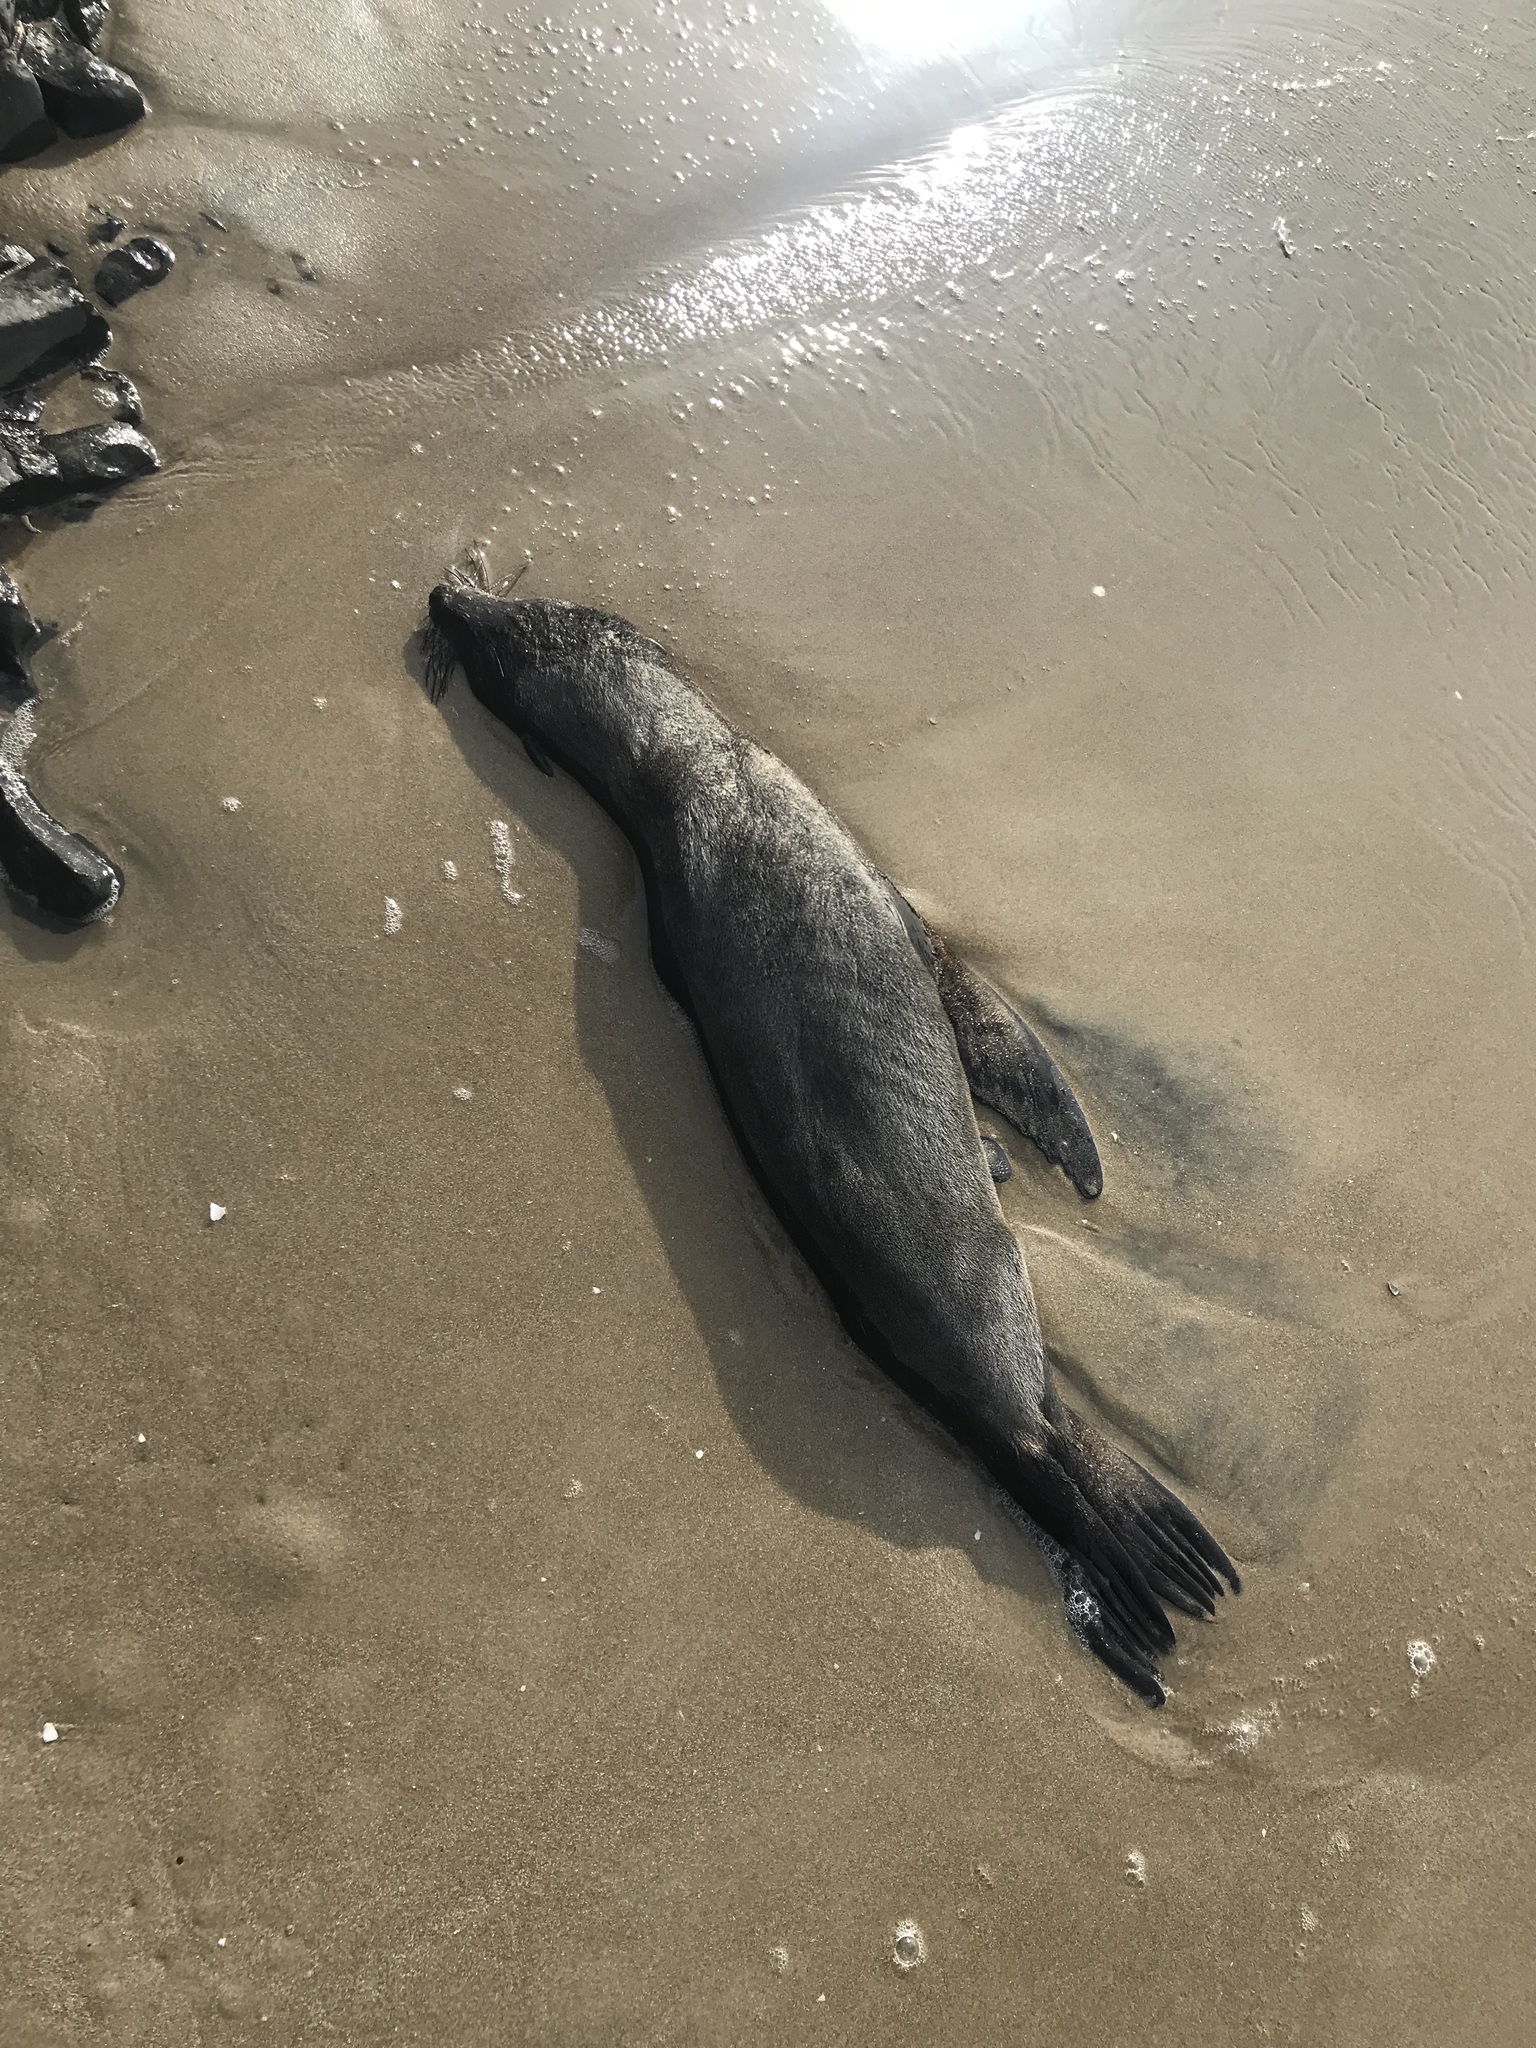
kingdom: Animalia
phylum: Chordata
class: Mammalia
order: Carnivora
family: Otariidae
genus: Arctocephalus
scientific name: Arctocephalus forsteri
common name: New zealand fur seal
